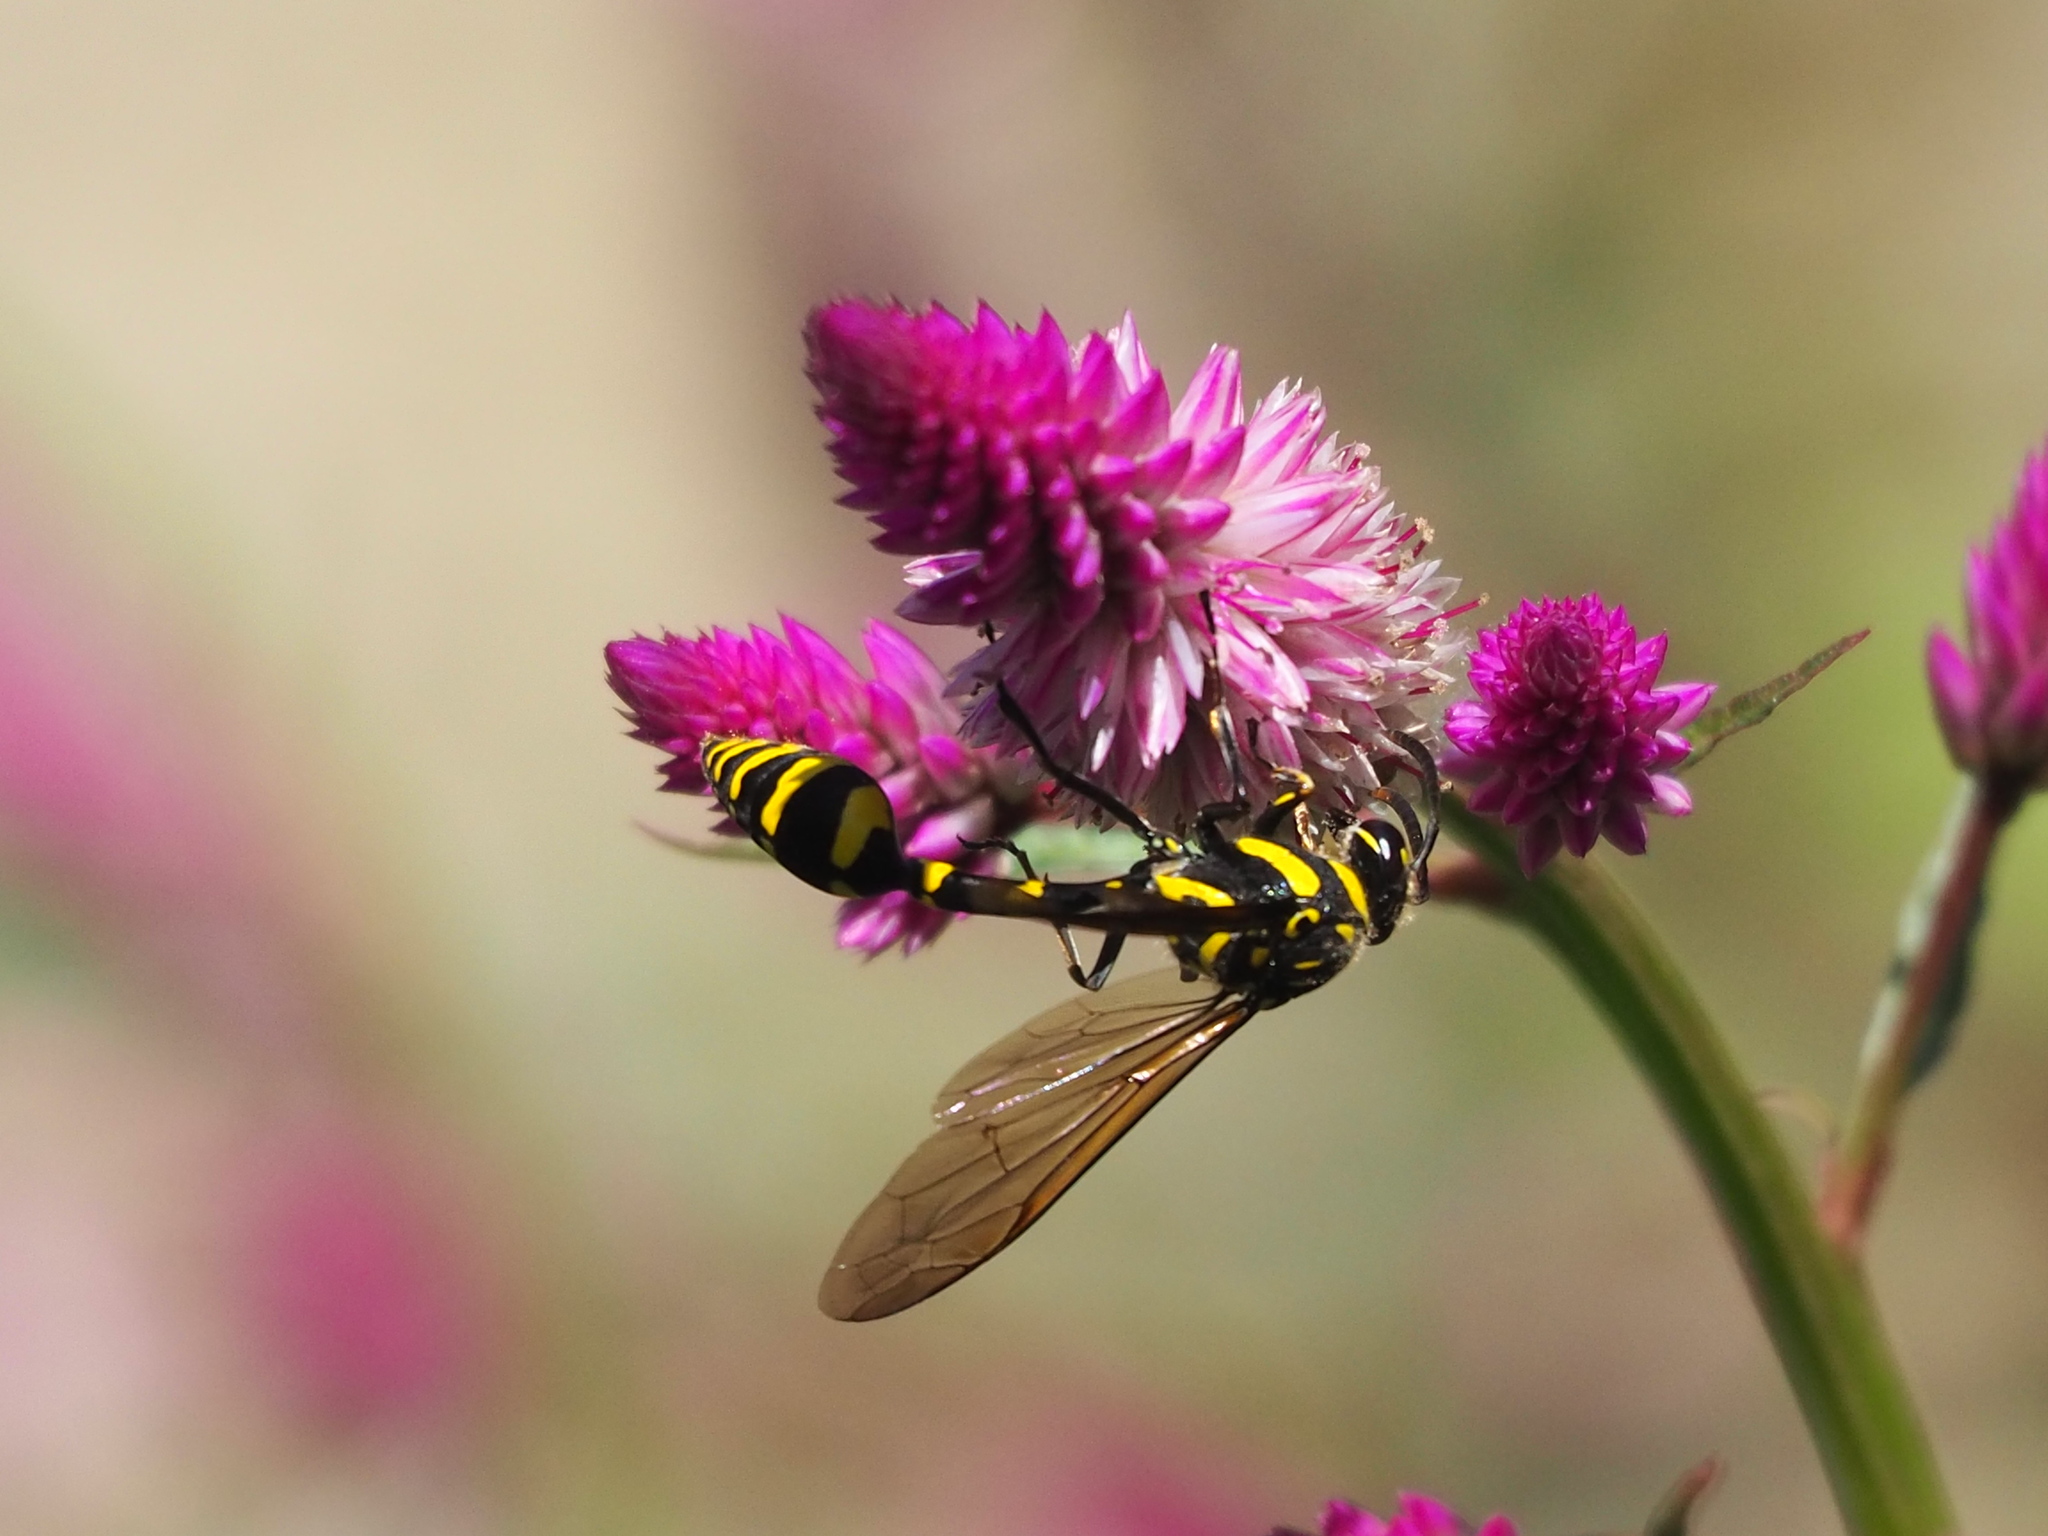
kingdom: Animalia
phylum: Arthropoda
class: Insecta
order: Hymenoptera
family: Eumenidae
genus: Phimenes
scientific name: Phimenes flavopictus
